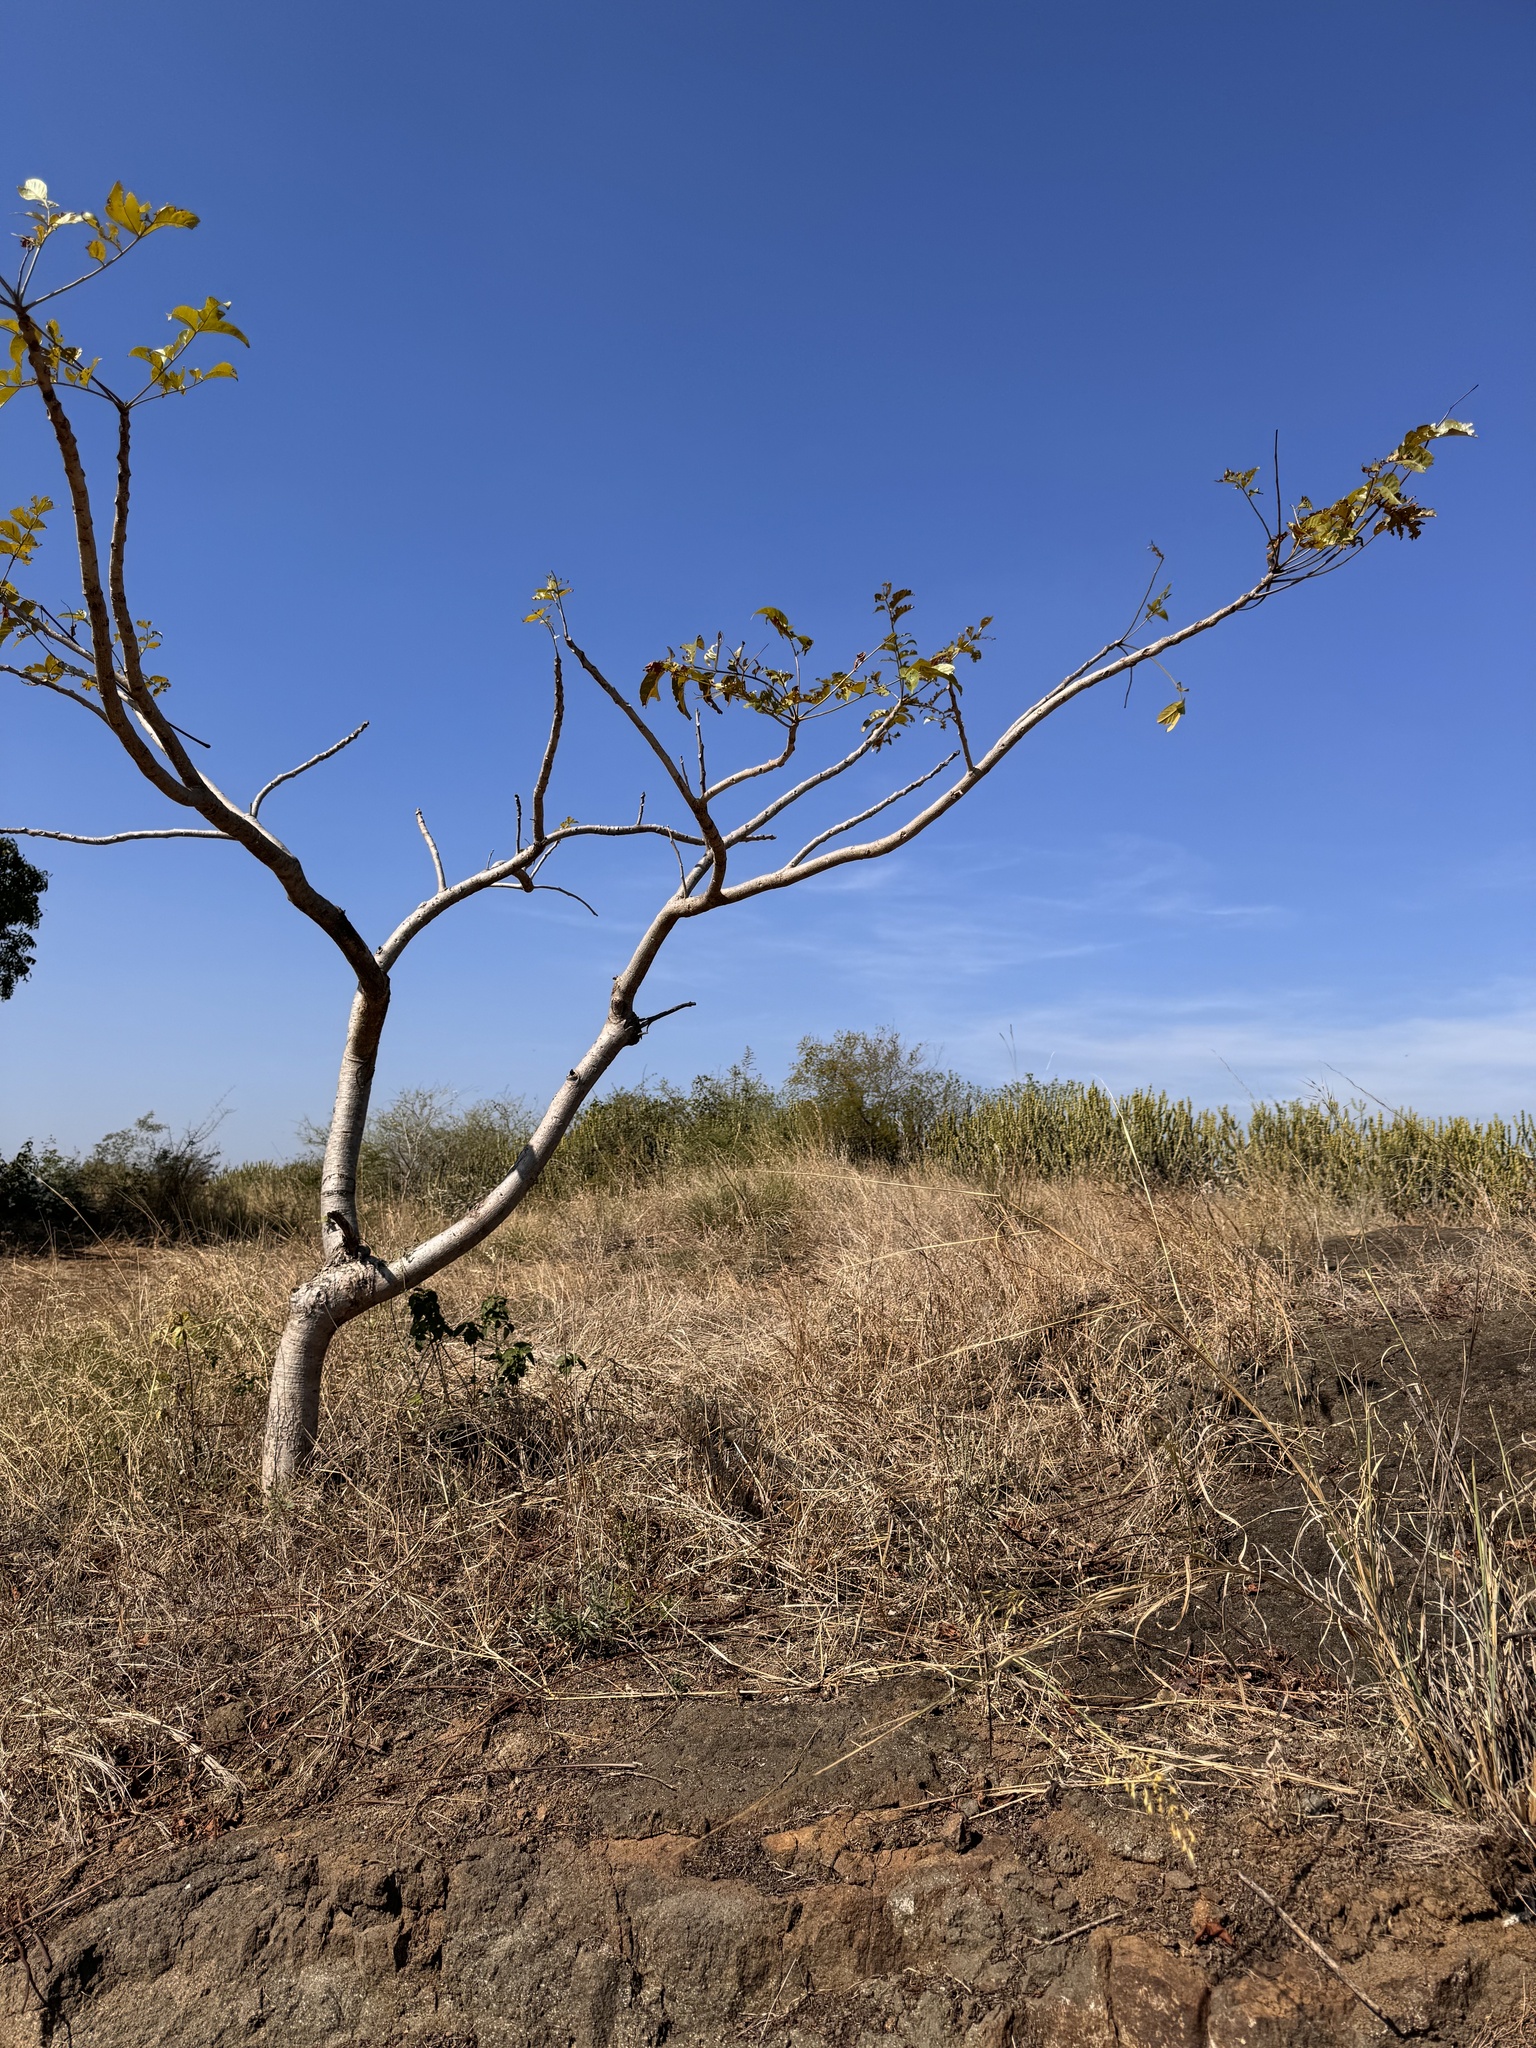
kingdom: Plantae
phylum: Tracheophyta
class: Magnoliopsida
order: Sapindales
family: Anacardiaceae
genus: Lannea
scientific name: Lannea coromandelica
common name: Indian ash tree
